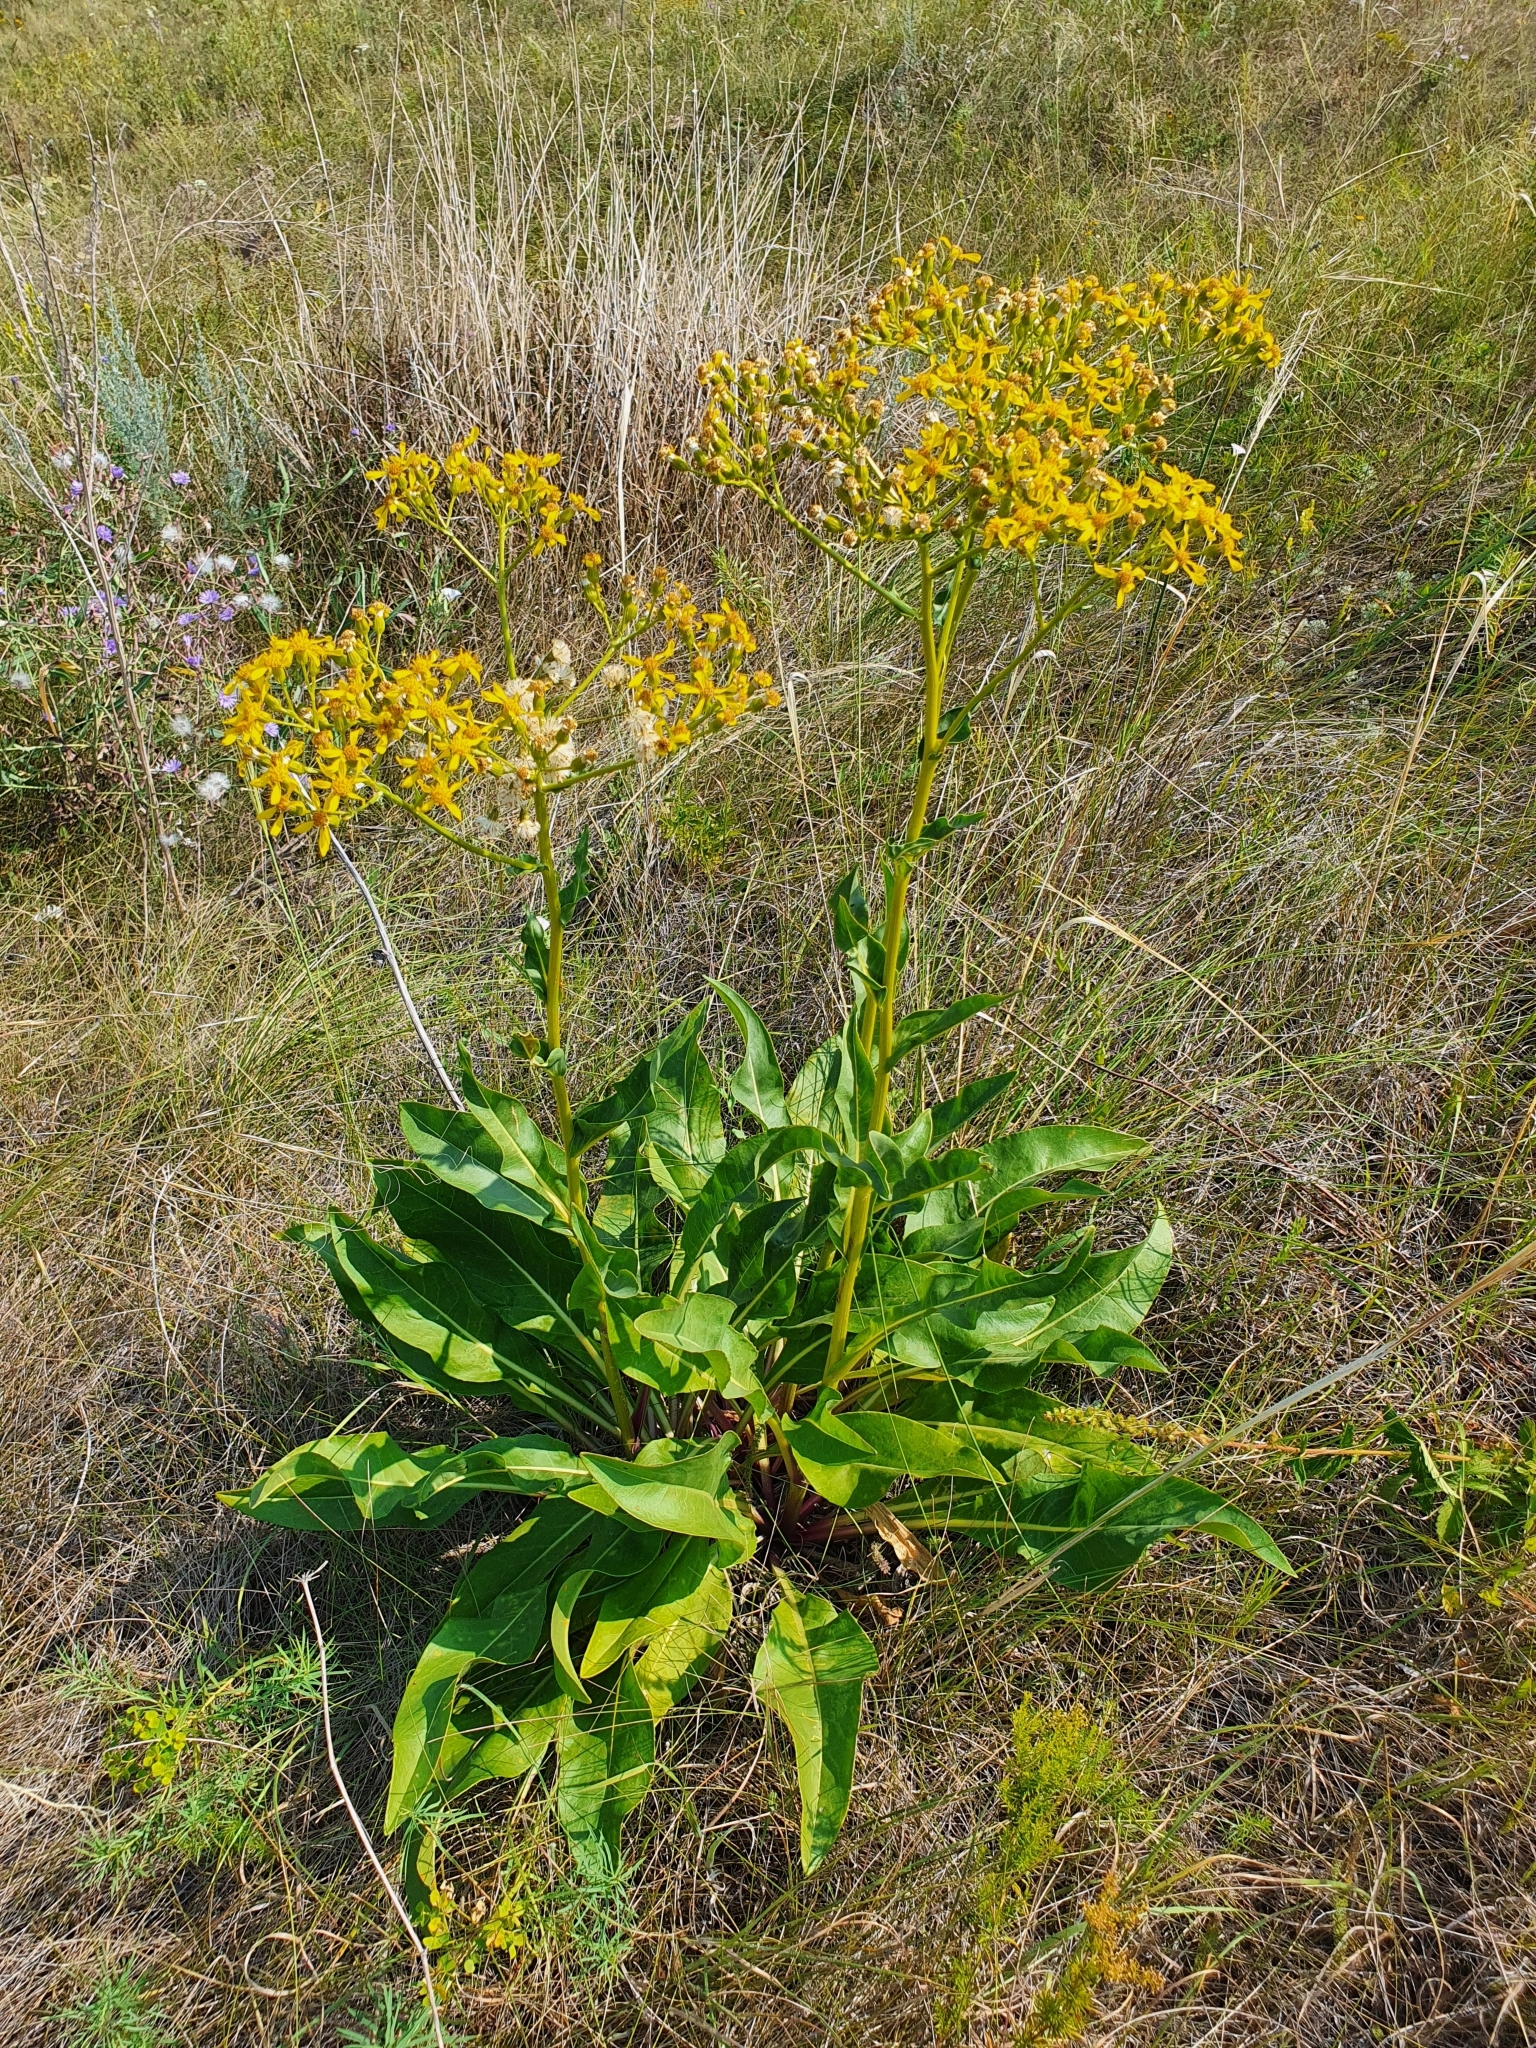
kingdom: Plantae
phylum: Tracheophyta
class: Magnoliopsida
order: Asterales
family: Asteraceae
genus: Senecio
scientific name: Senecio doria
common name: Golden ragwort
